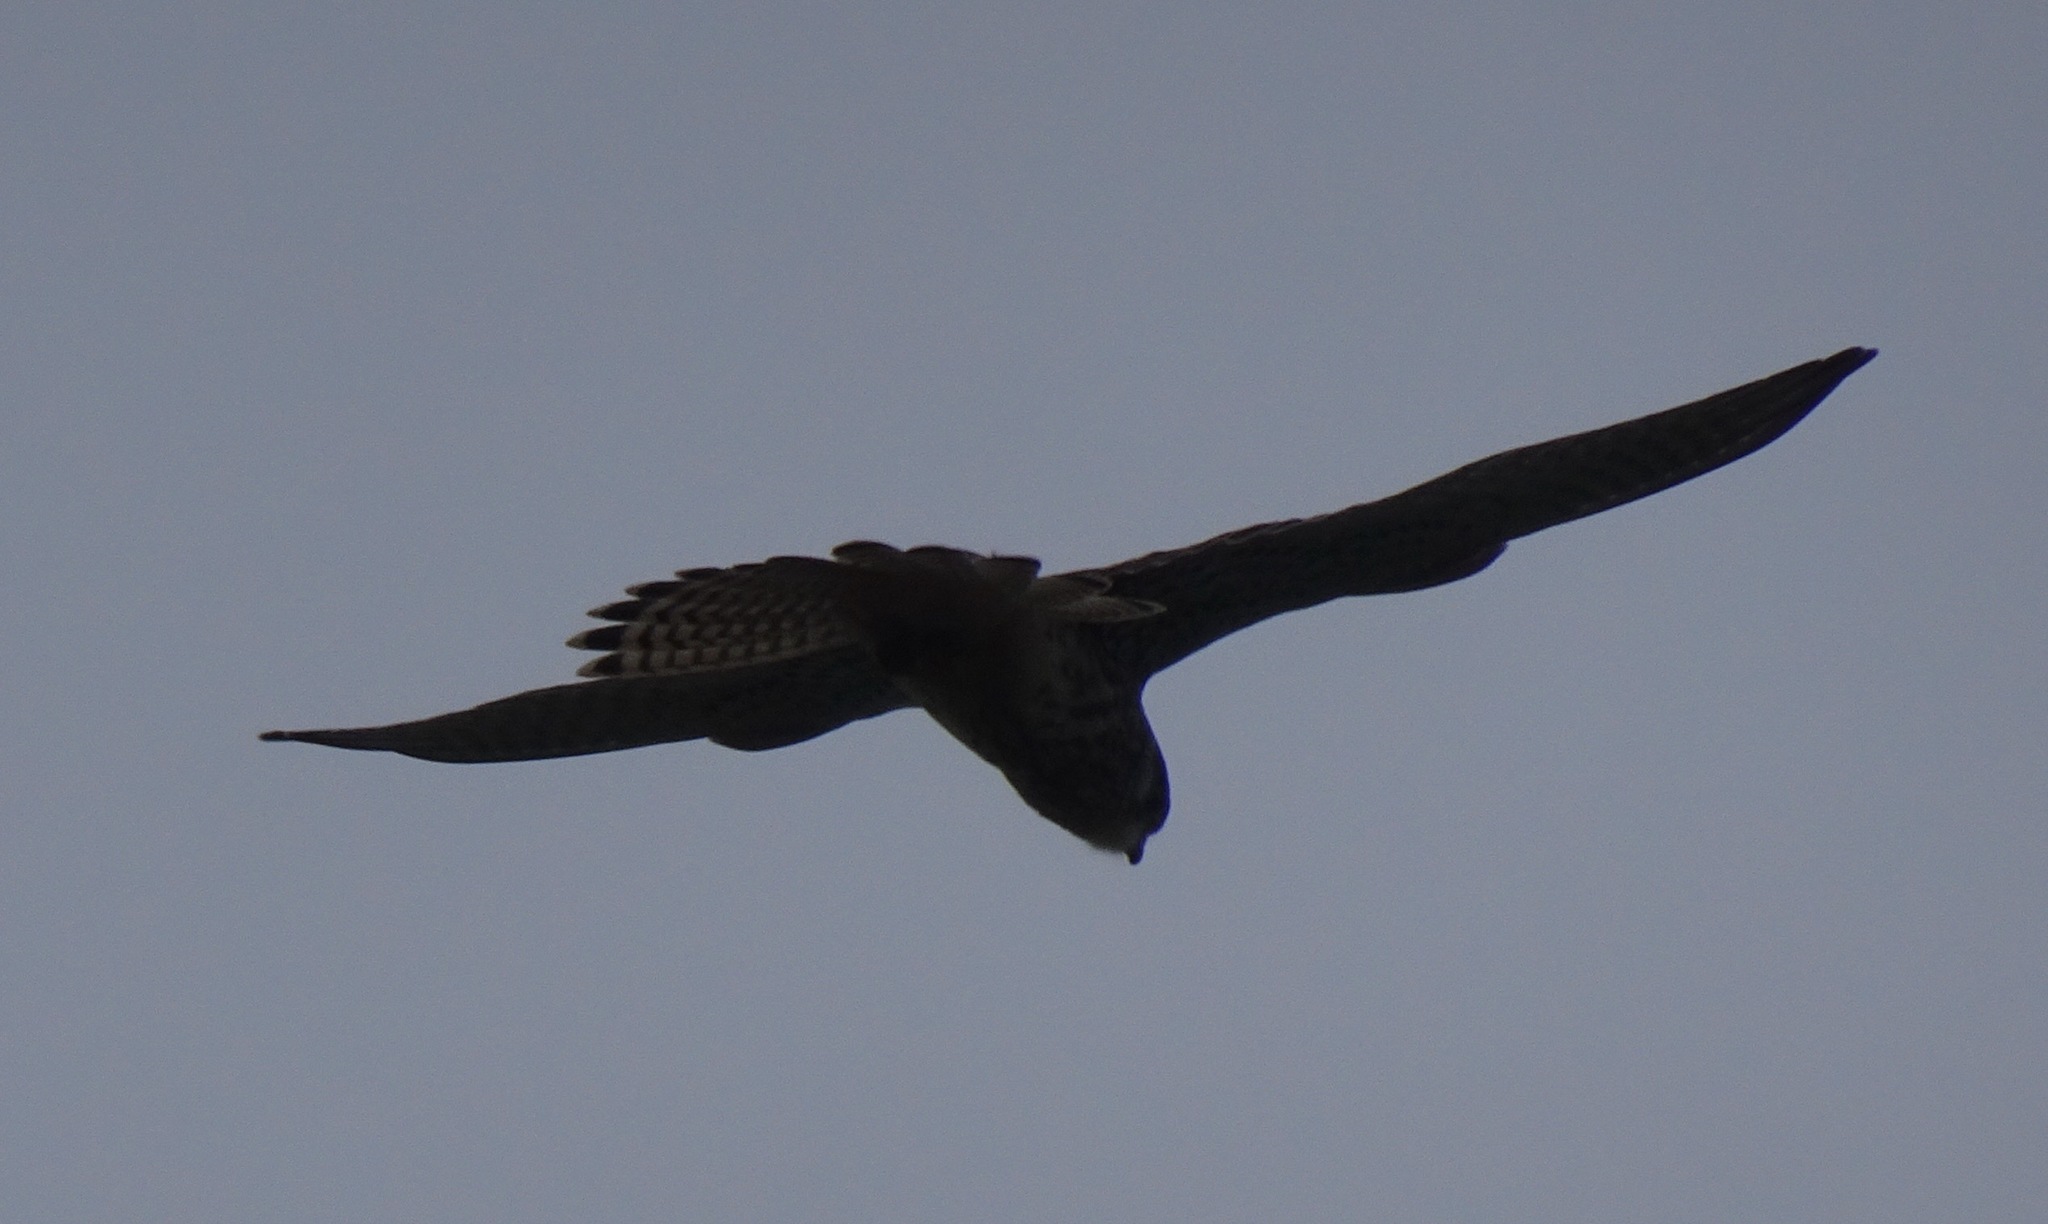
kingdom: Animalia
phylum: Chordata
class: Aves
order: Falconiformes
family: Falconidae
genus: Falco
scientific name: Falco tinnunculus
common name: Common kestrel
